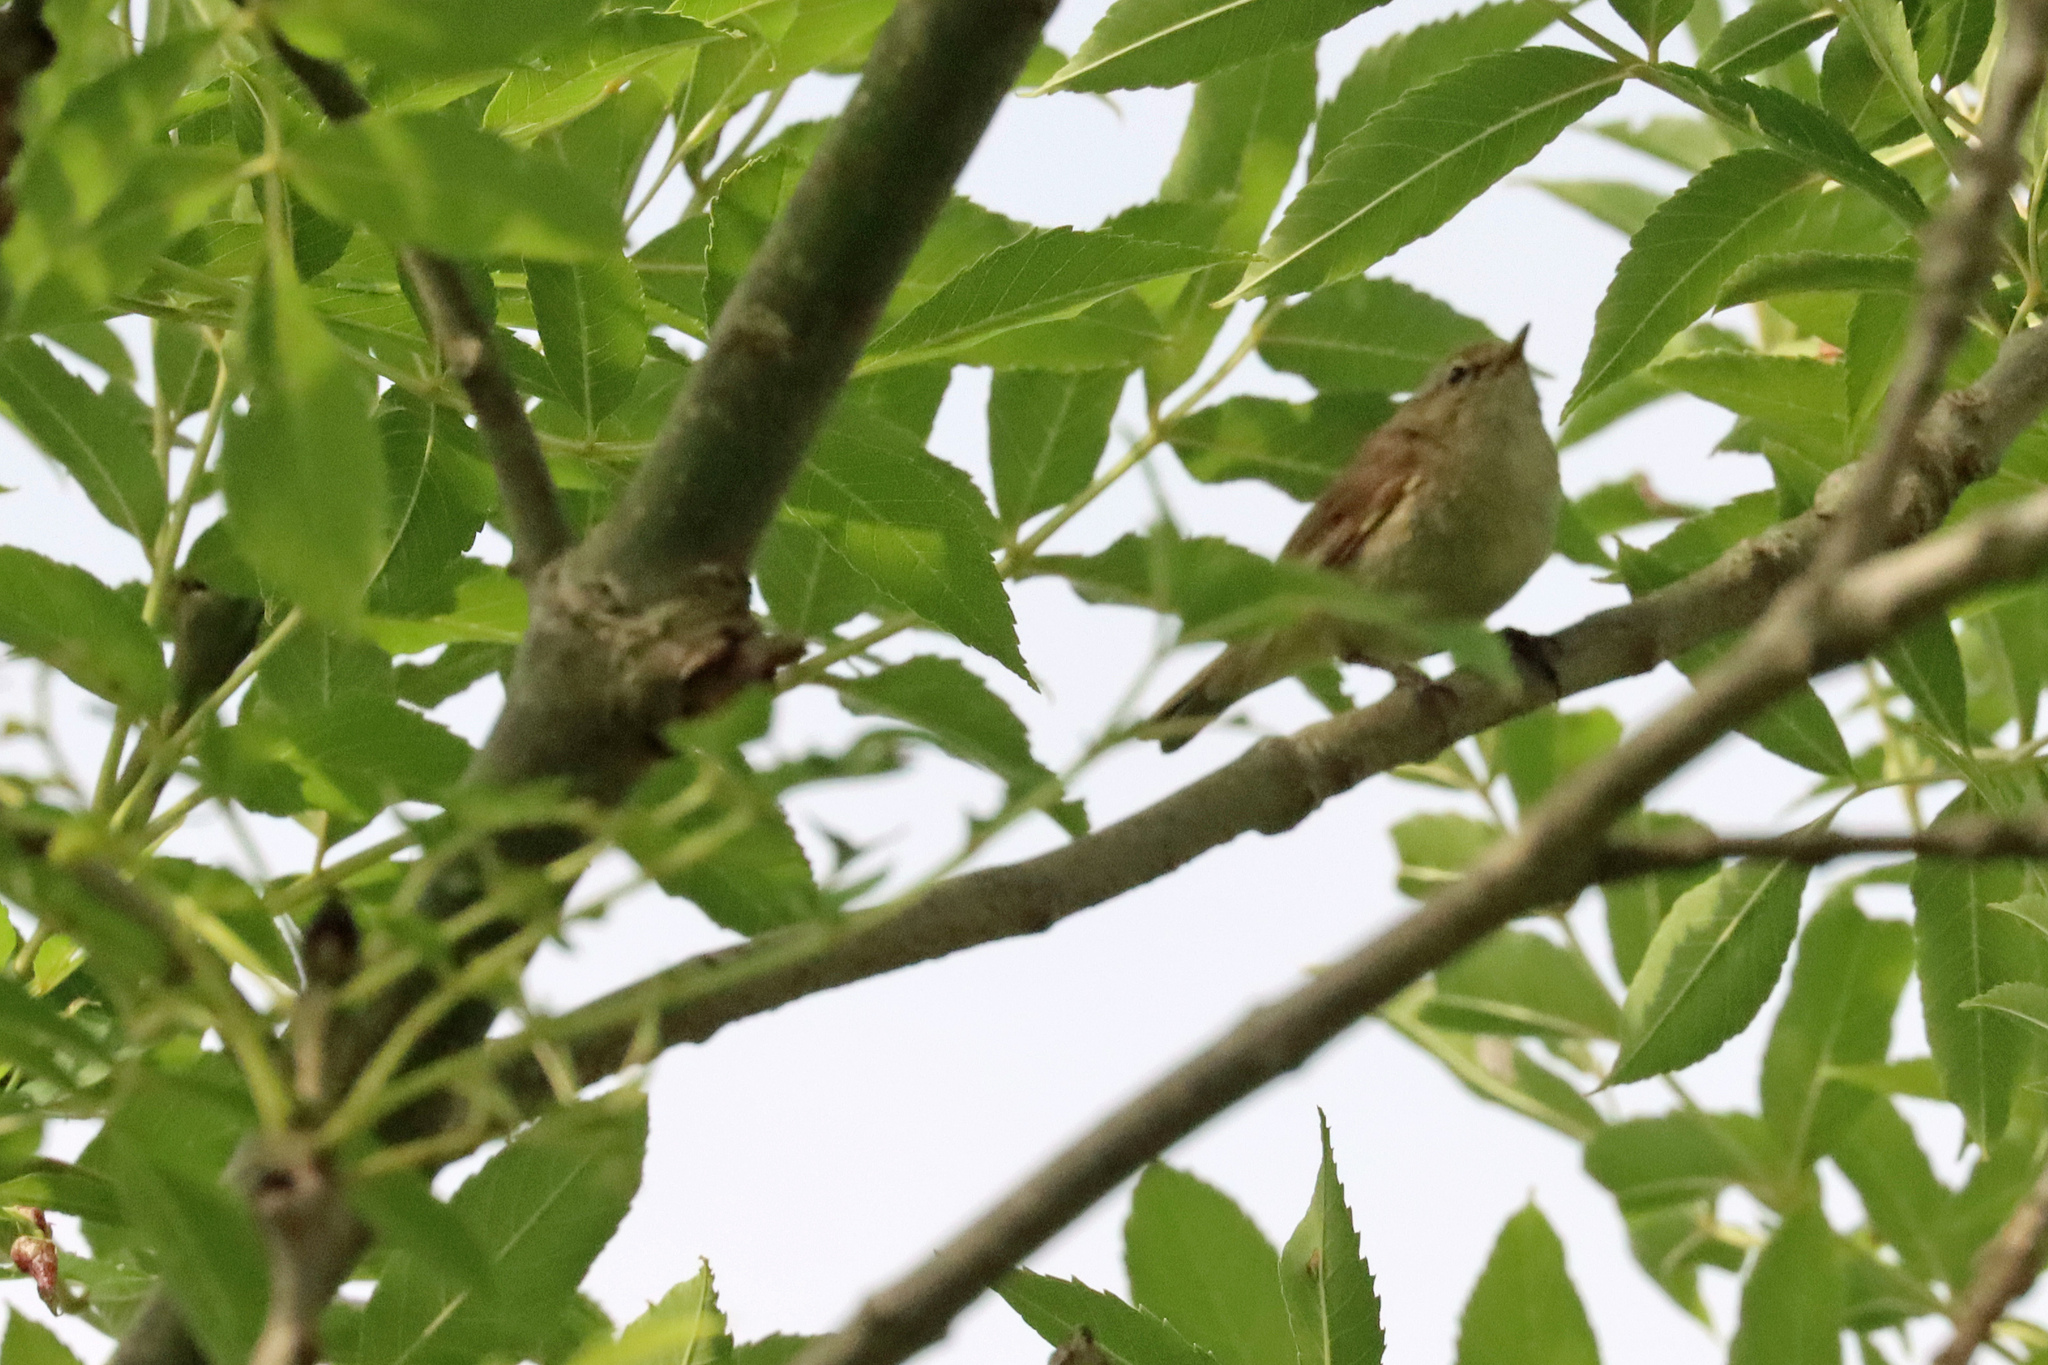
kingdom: Animalia
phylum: Chordata
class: Aves
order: Passeriformes
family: Phylloscopidae
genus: Phylloscopus
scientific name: Phylloscopus collybita
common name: Common chiffchaff
